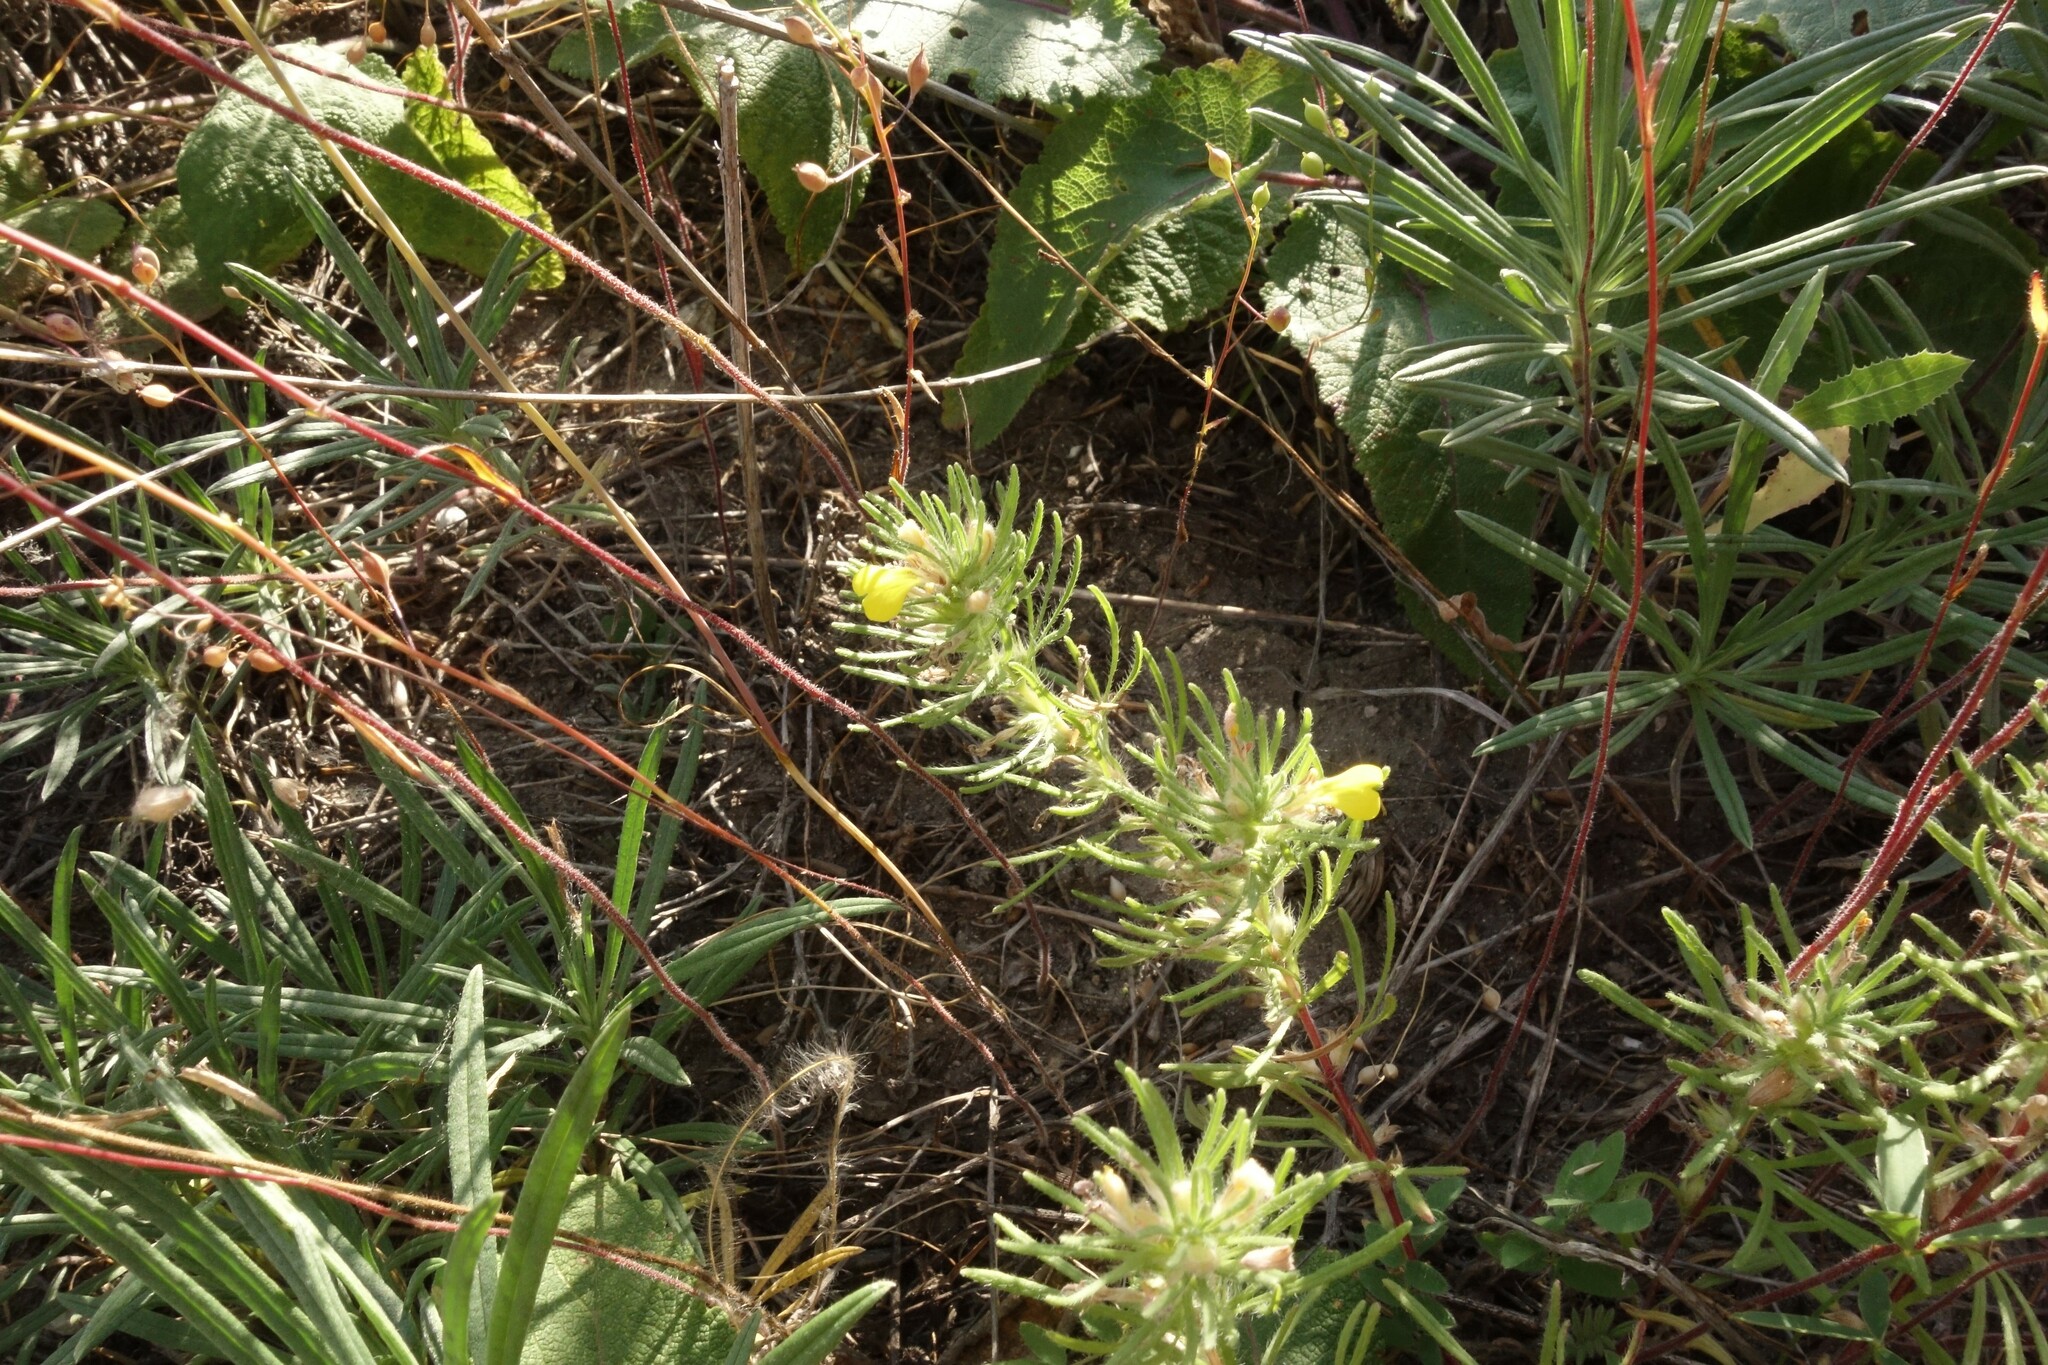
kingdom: Plantae
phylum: Tracheophyta
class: Magnoliopsida
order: Lamiales
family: Lamiaceae
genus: Ajuga
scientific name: Ajuga chamaepitys
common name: Ground-pine
